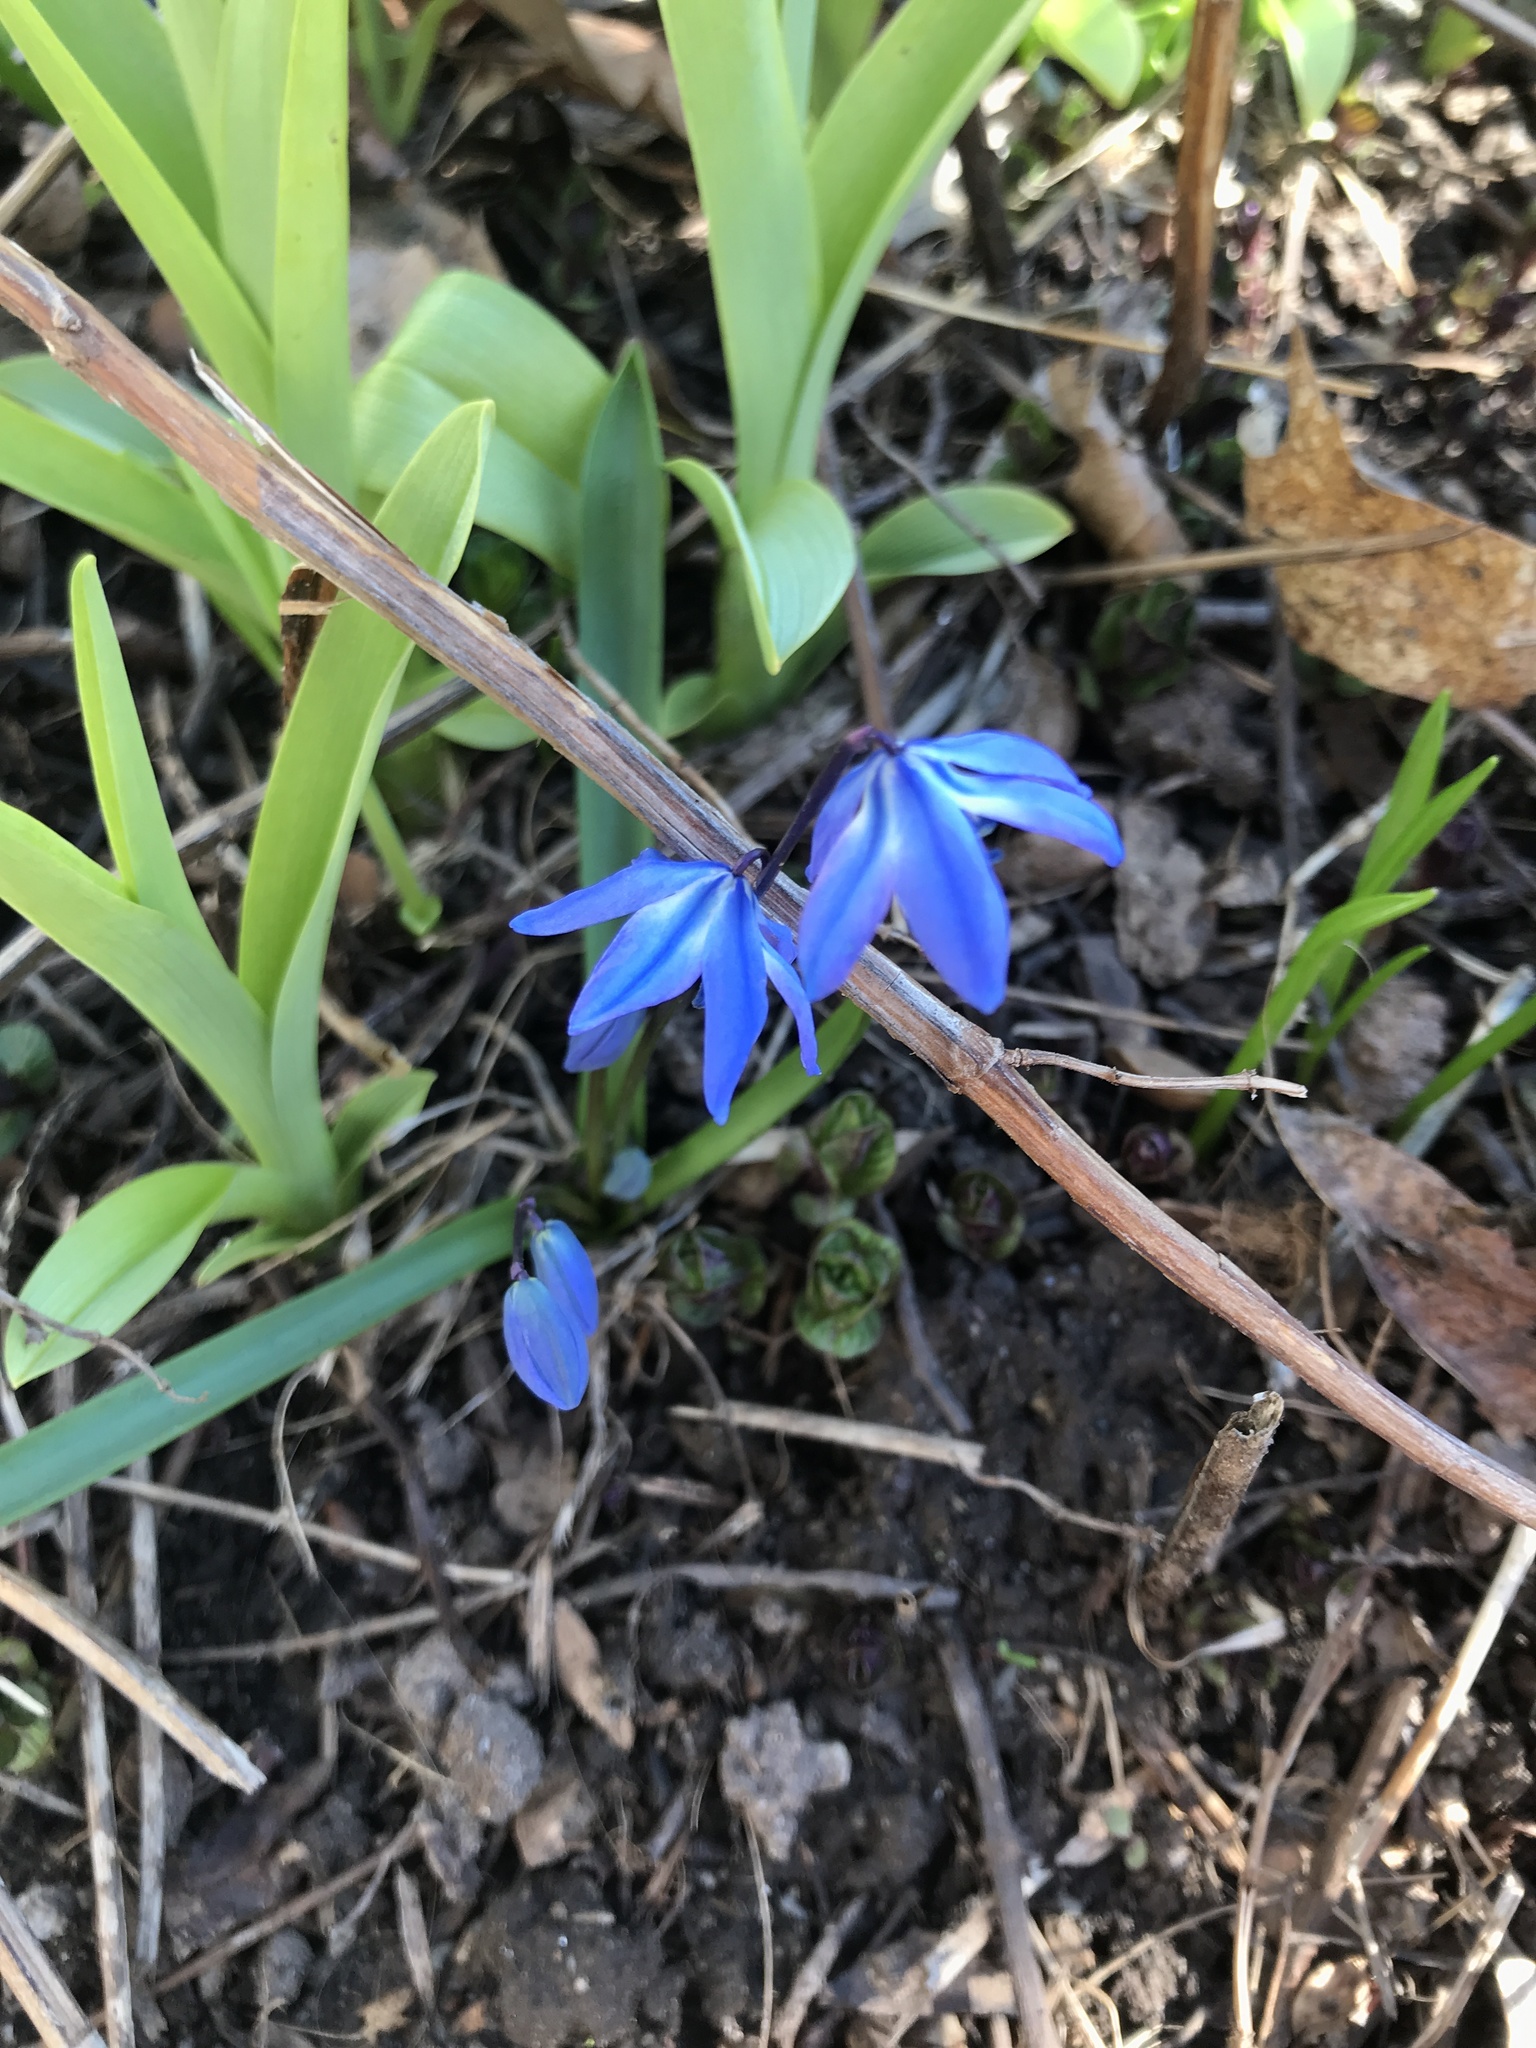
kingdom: Plantae
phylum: Tracheophyta
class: Liliopsida
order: Asparagales
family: Asparagaceae
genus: Scilla
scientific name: Scilla siberica
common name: Siberian squill
